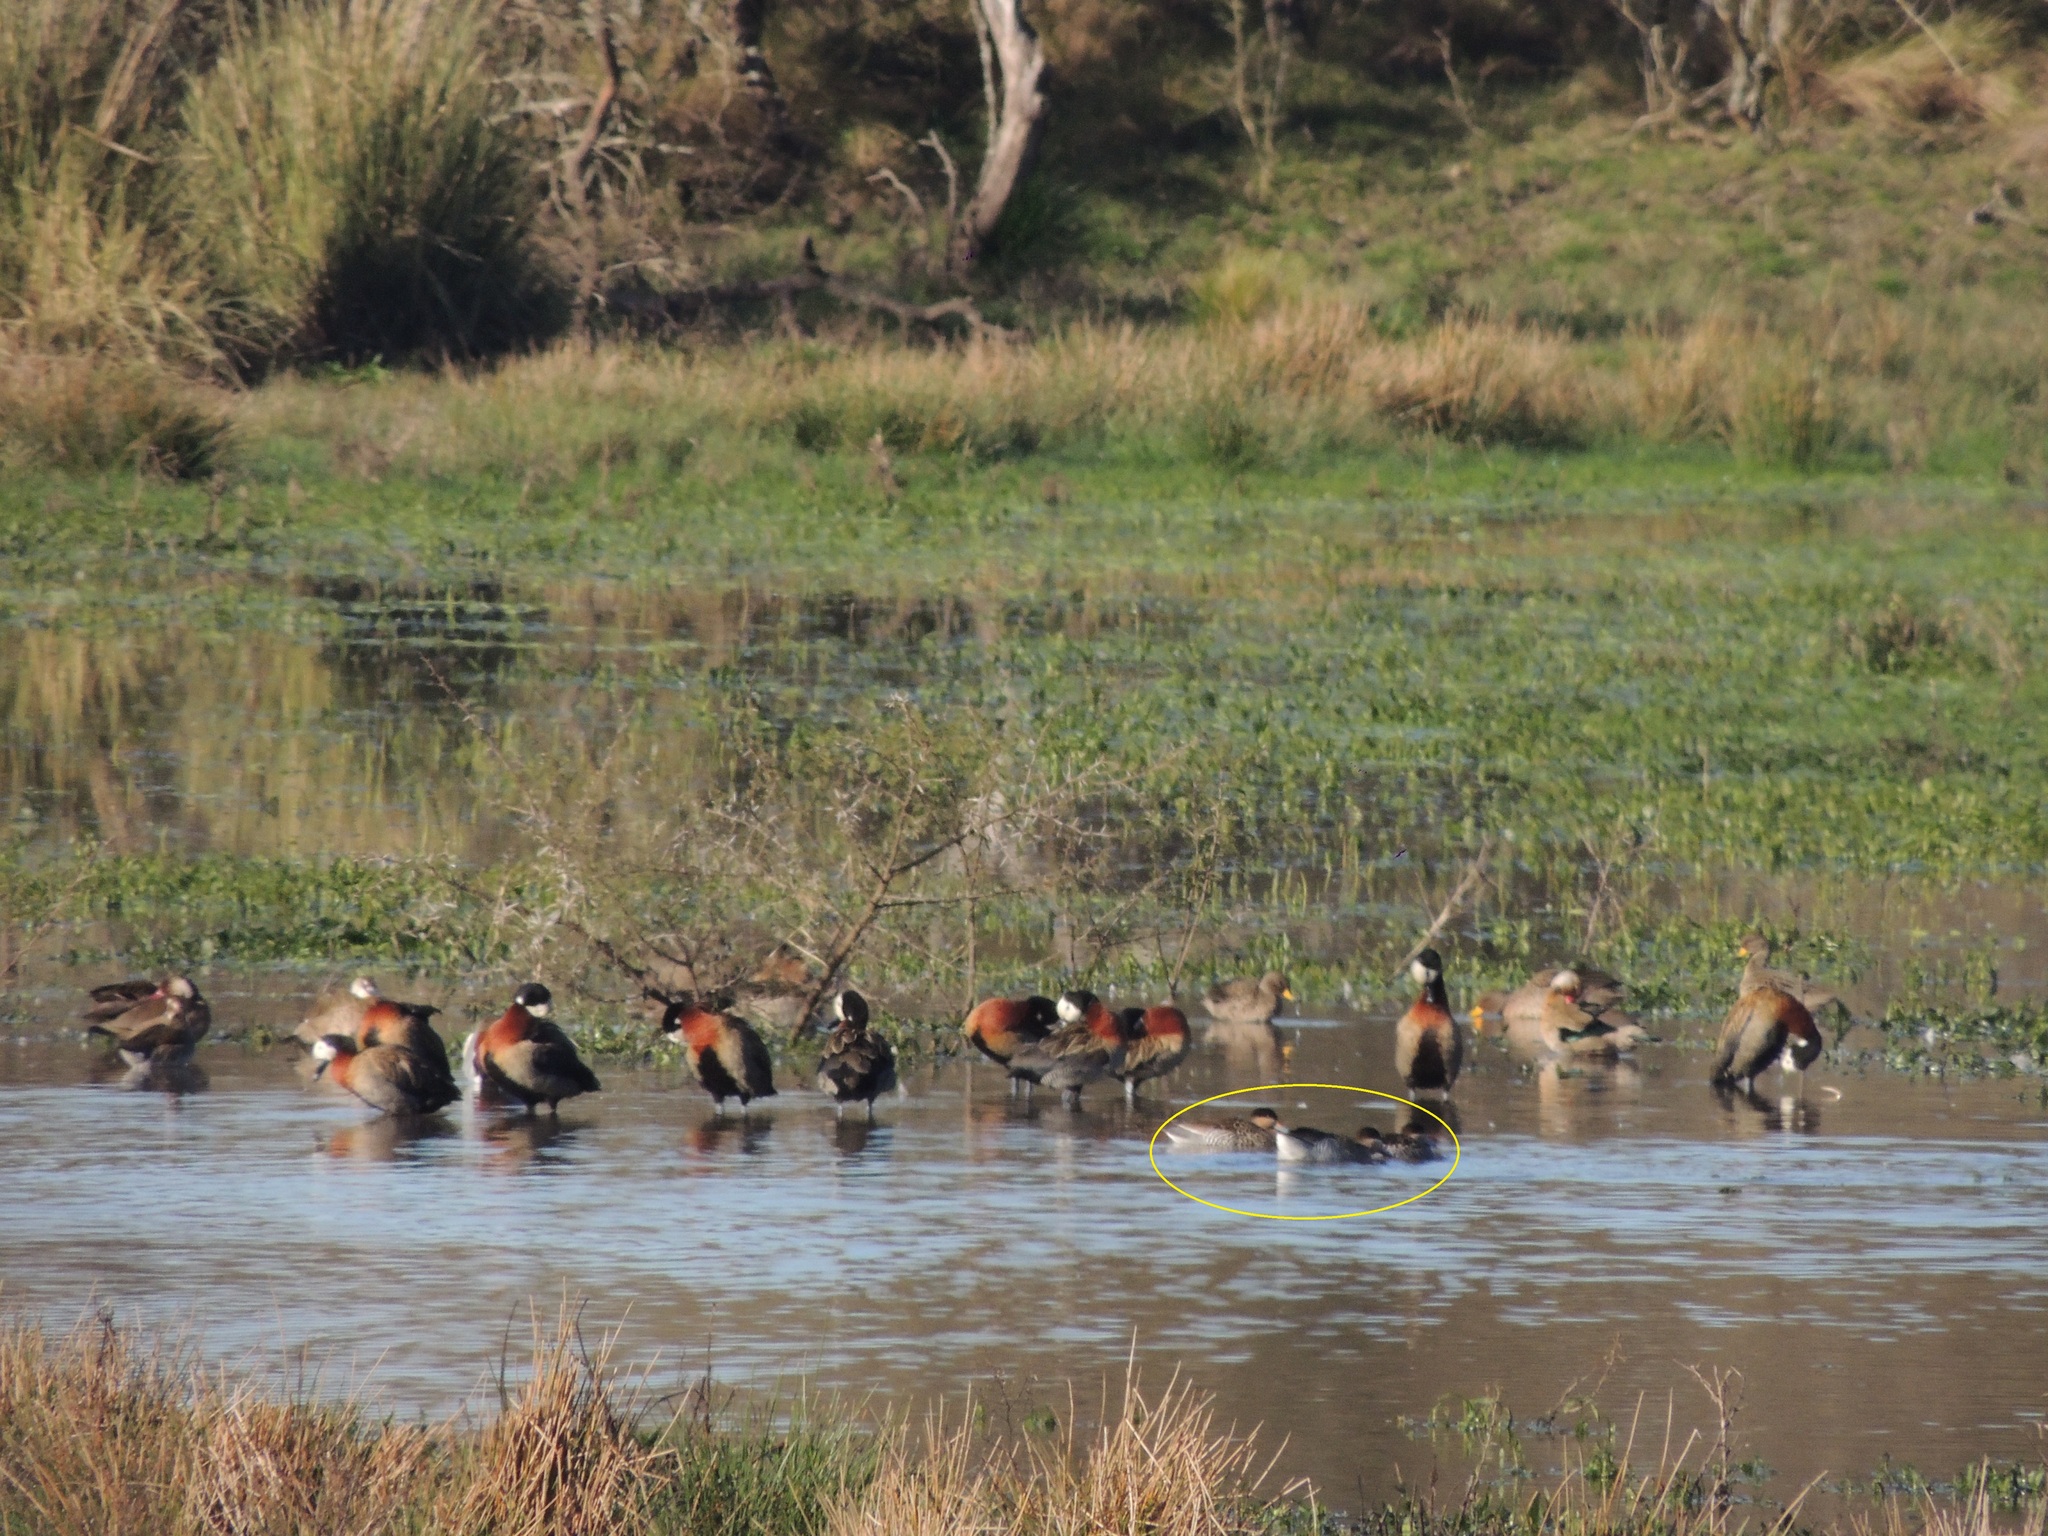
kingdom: Animalia
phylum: Chordata
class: Aves
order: Anseriformes
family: Anatidae
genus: Spatula
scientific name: Spatula versicolor
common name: Silver teal
